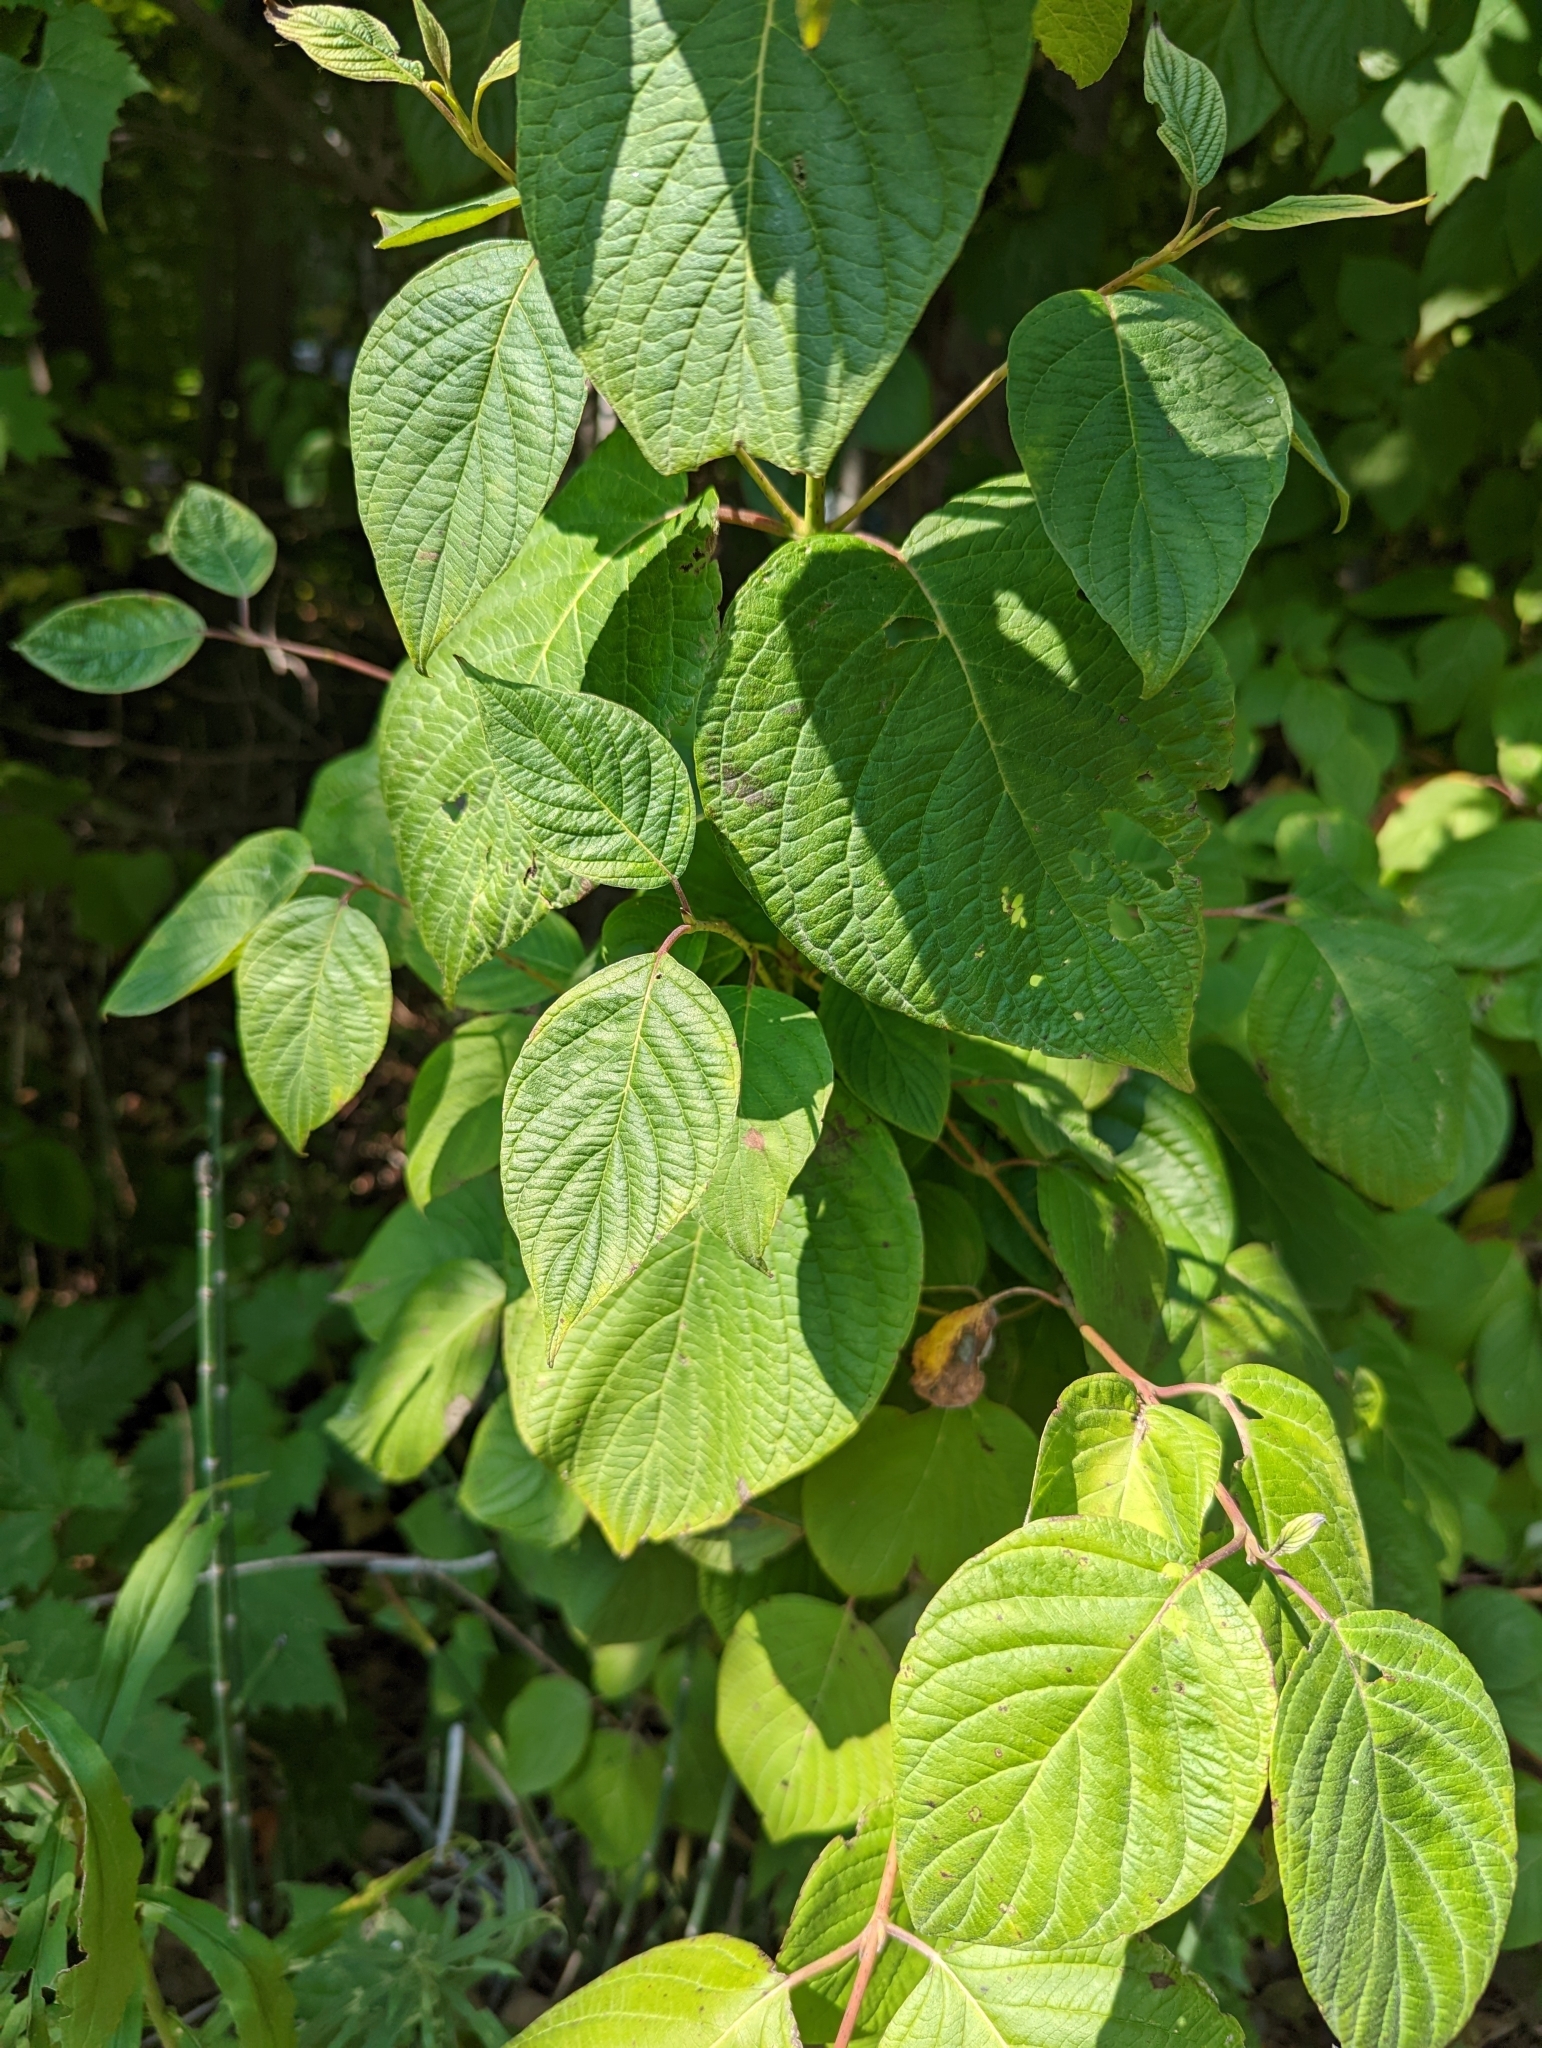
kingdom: Plantae
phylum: Tracheophyta
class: Magnoliopsida
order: Cornales
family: Cornaceae
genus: Cornus
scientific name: Cornus rugosa
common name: Round-leaf dogwood
